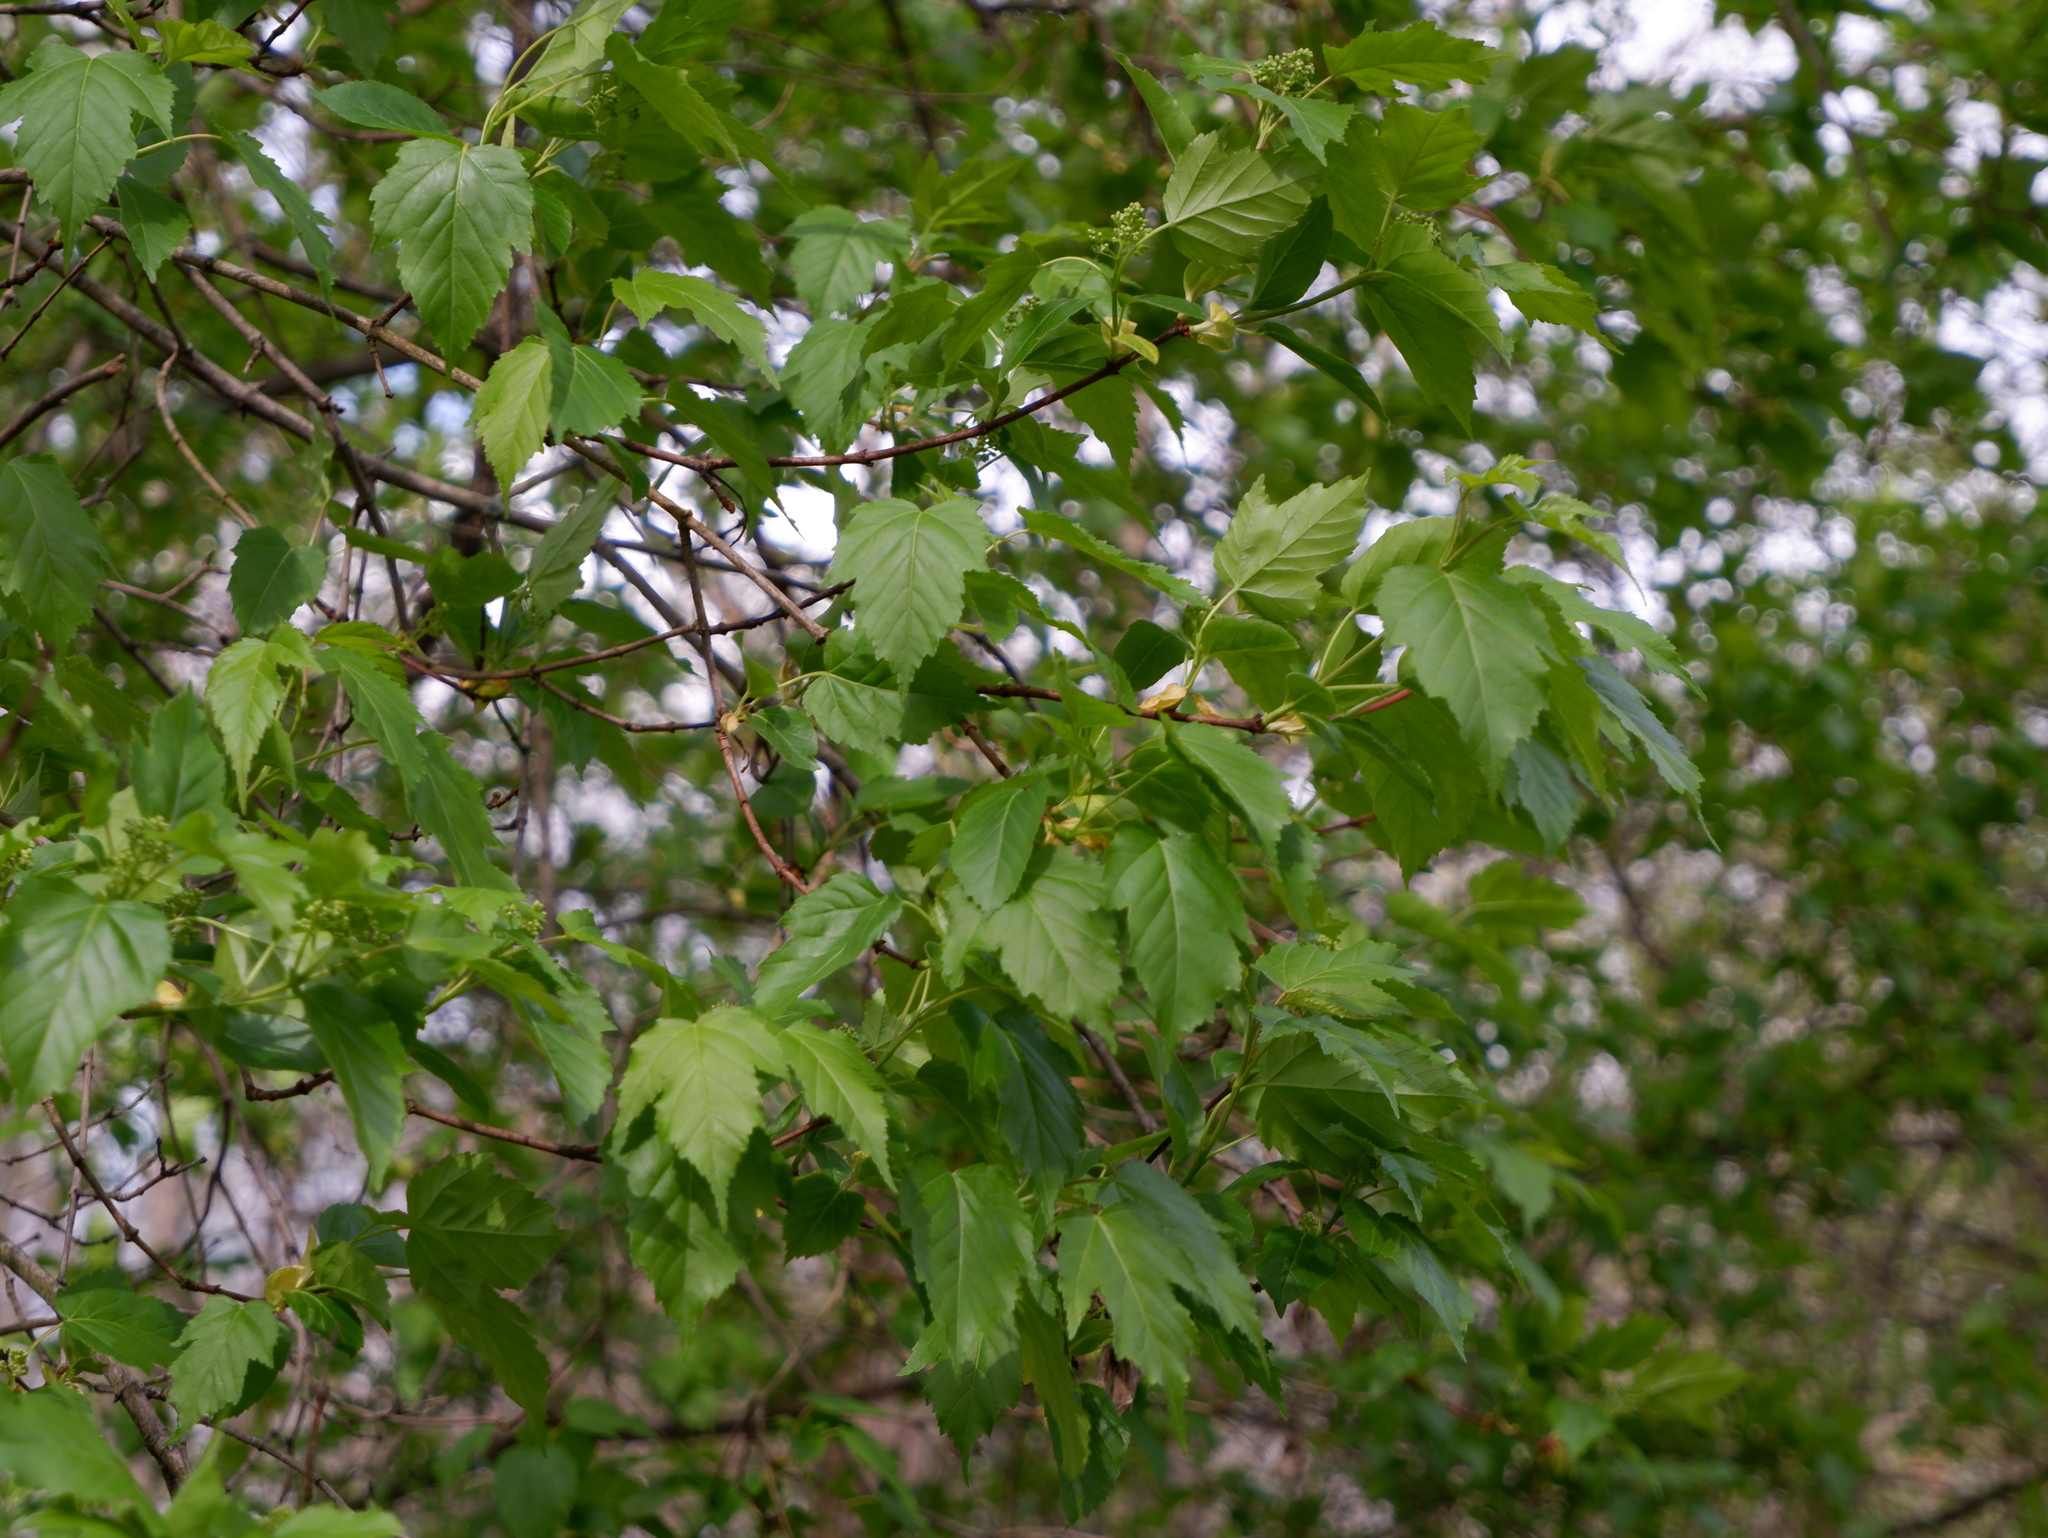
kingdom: Plantae
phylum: Tracheophyta
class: Magnoliopsida
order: Sapindales
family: Sapindaceae
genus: Acer
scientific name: Acer tataricum
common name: Tartar maple
